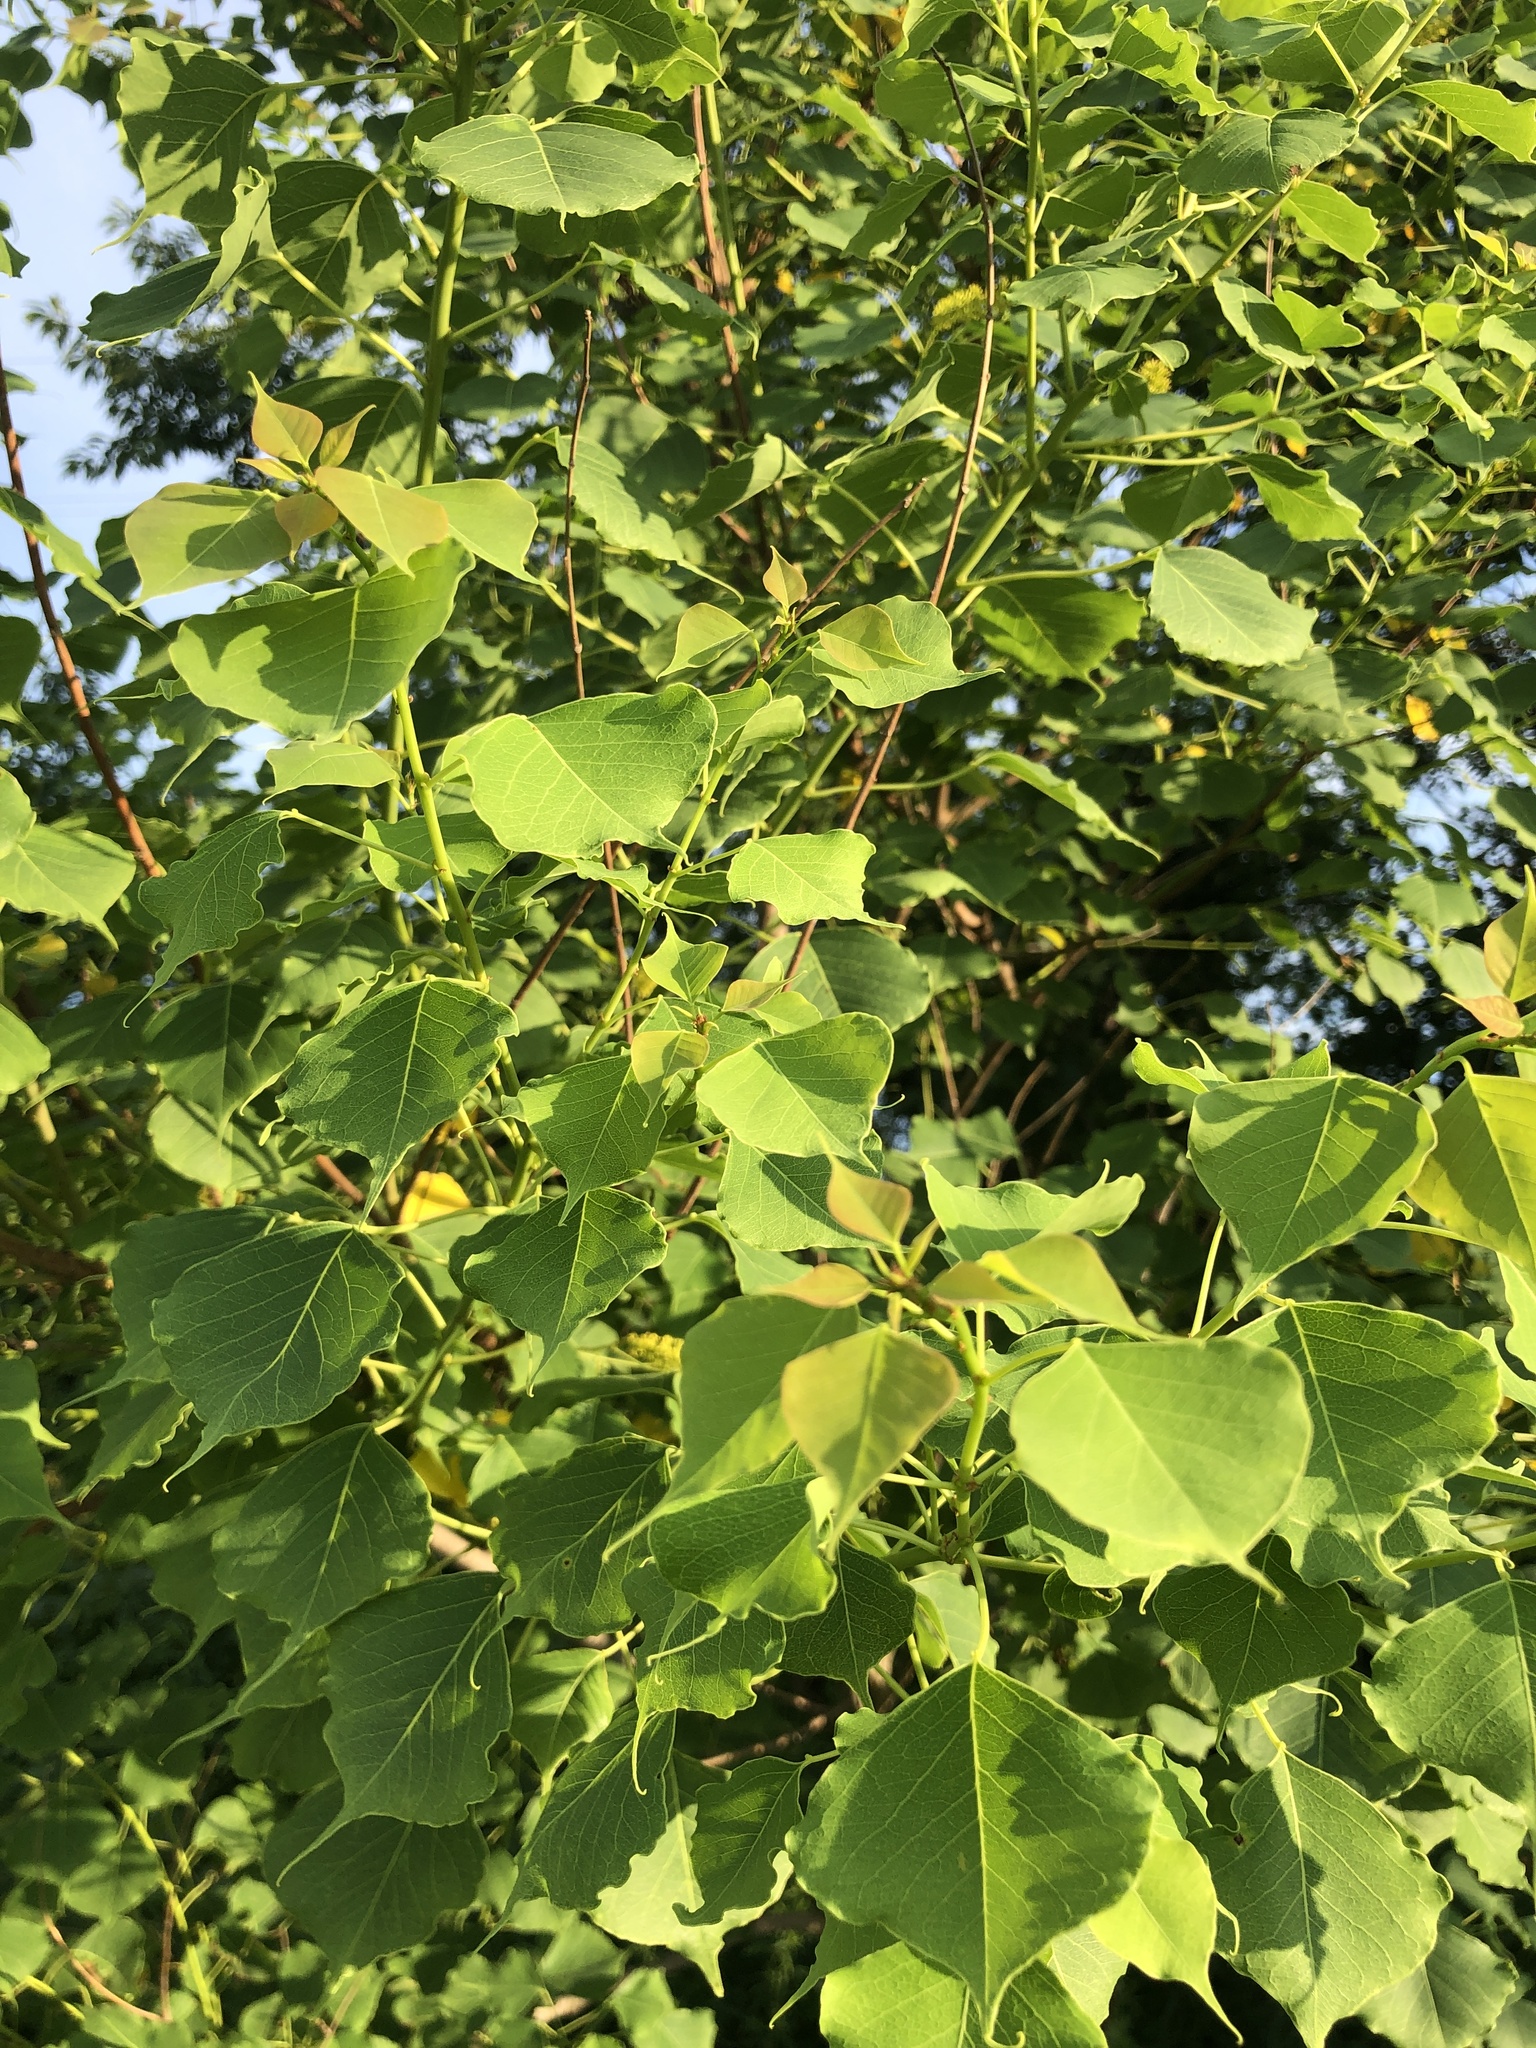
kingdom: Plantae
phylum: Tracheophyta
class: Magnoliopsida
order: Malpighiales
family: Euphorbiaceae
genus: Triadica
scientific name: Triadica sebifera
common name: Chinese tallow
